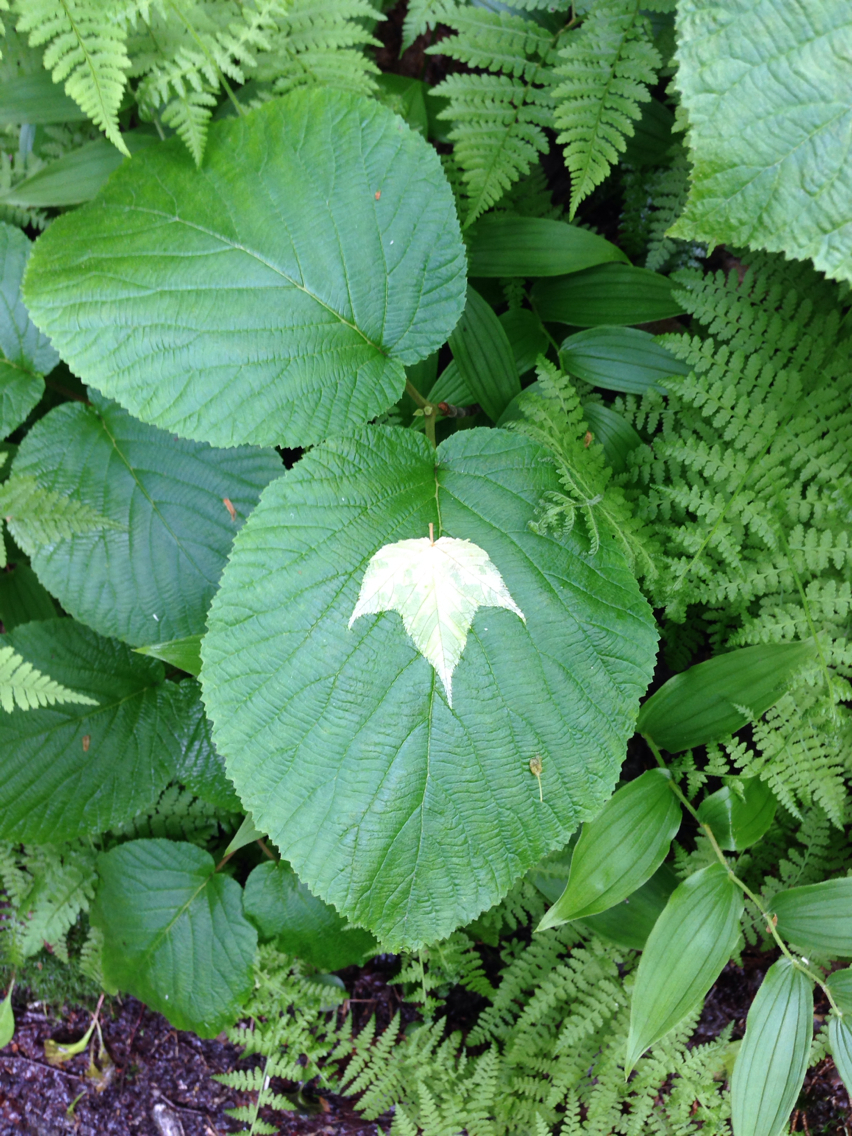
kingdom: Plantae
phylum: Tracheophyta
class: Magnoliopsida
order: Dipsacales
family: Viburnaceae
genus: Viburnum
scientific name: Viburnum lantanoides
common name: Hobblebush
